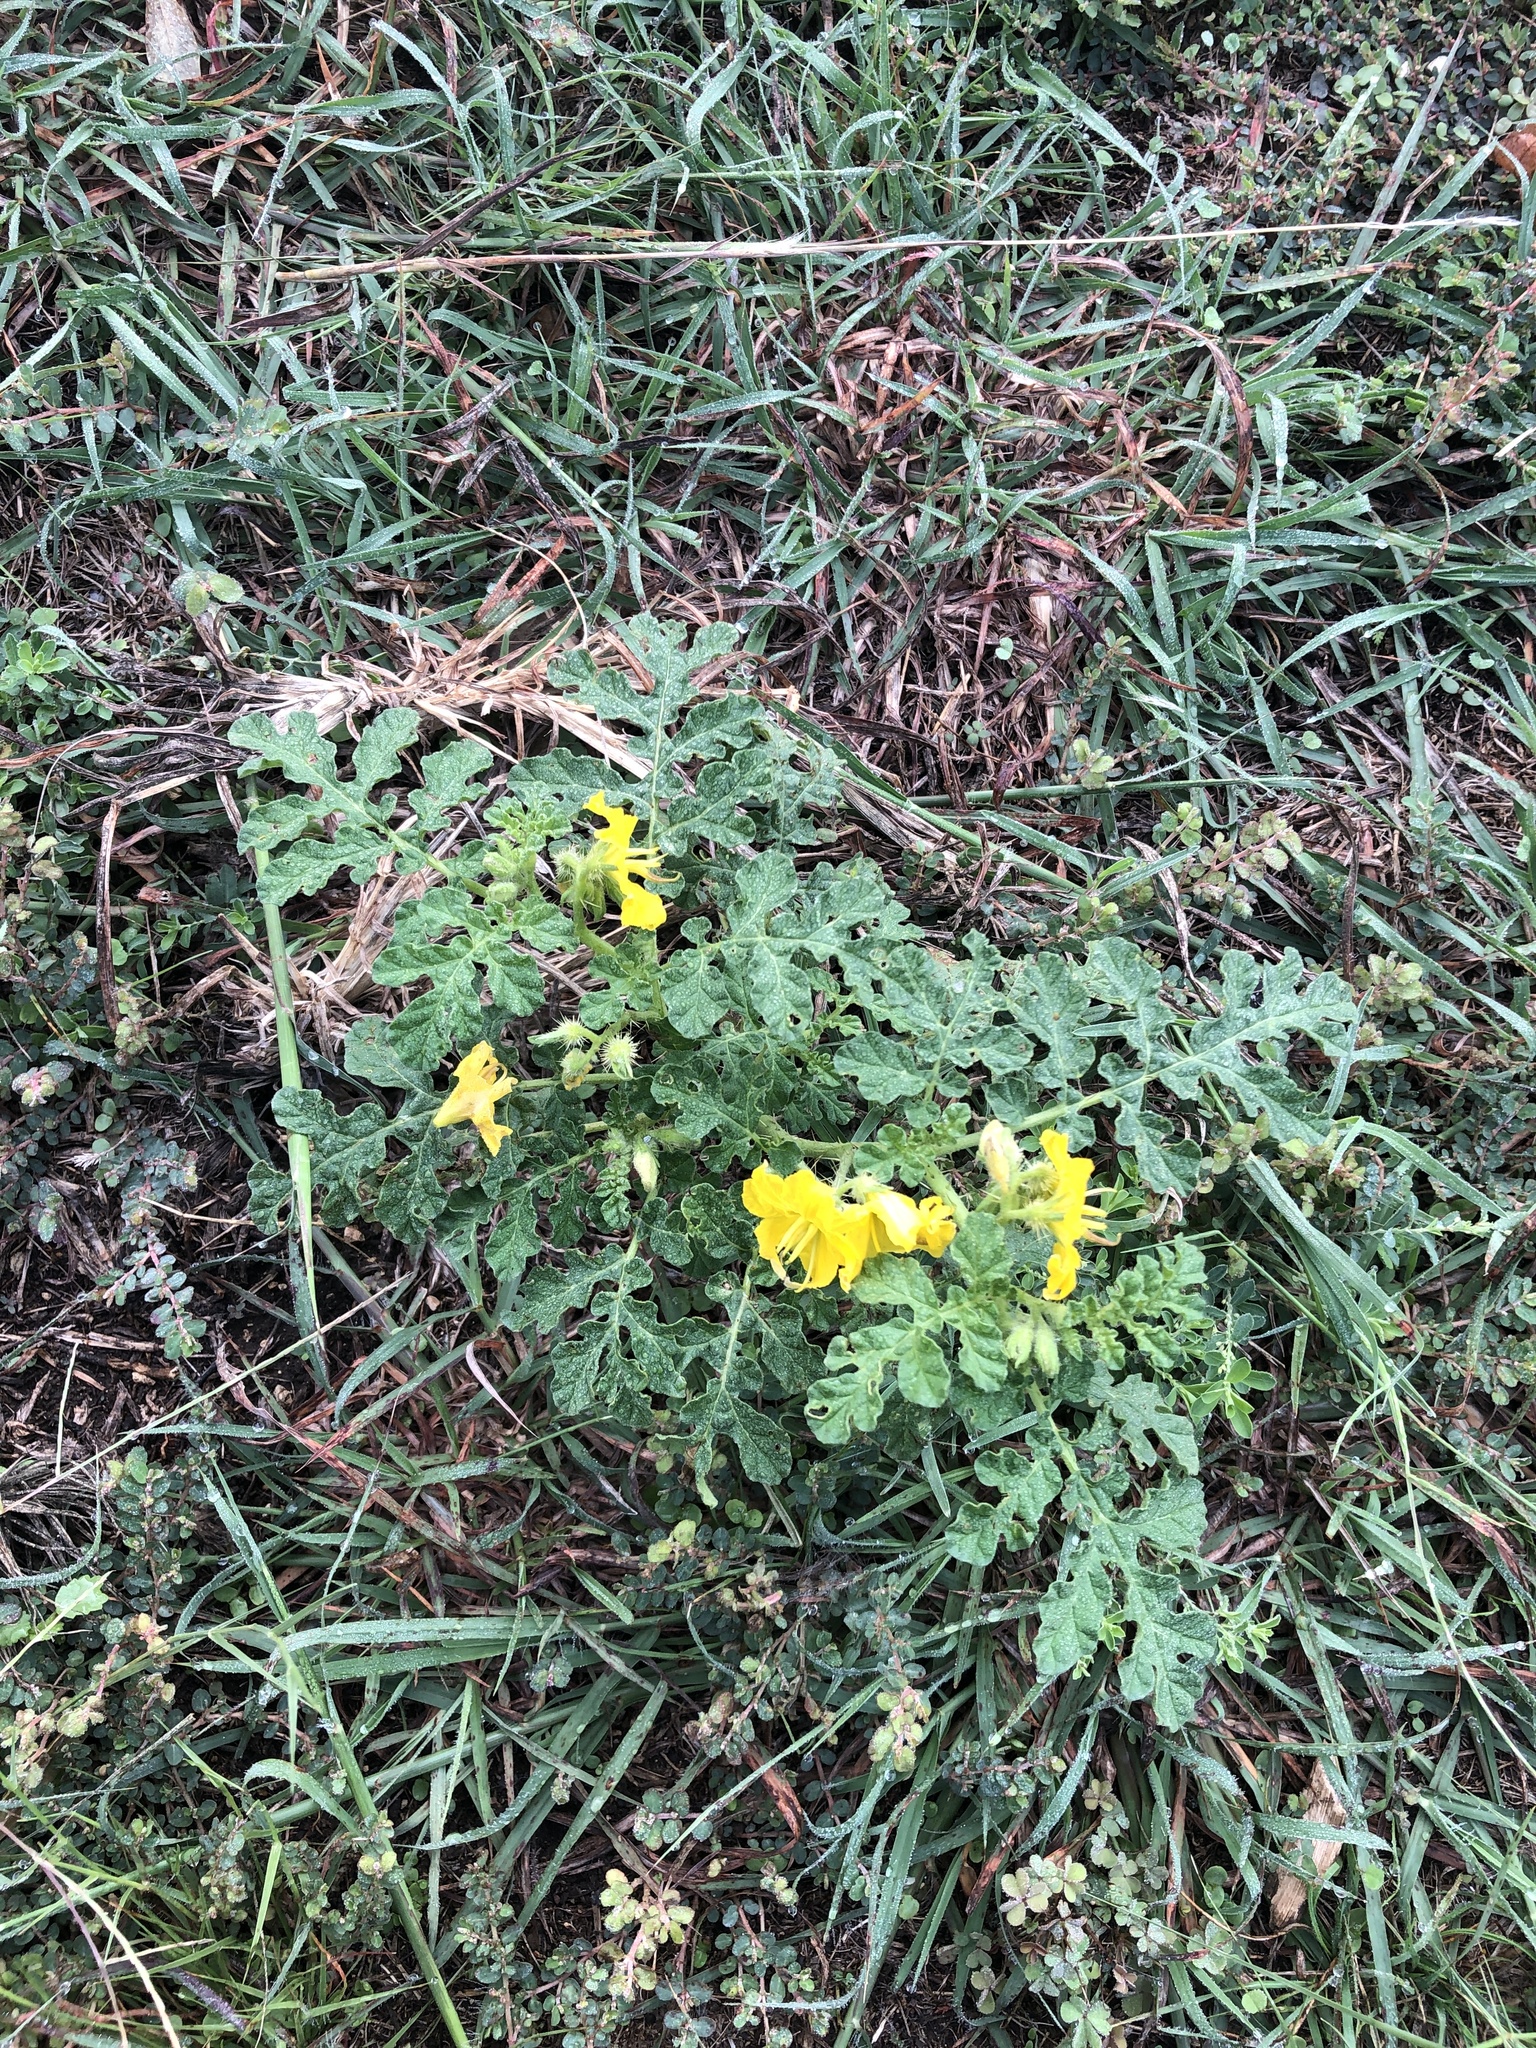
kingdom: Plantae
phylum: Tracheophyta
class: Magnoliopsida
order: Solanales
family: Solanaceae
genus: Solanum
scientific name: Solanum angustifolium
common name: Buffalobur nightshade
